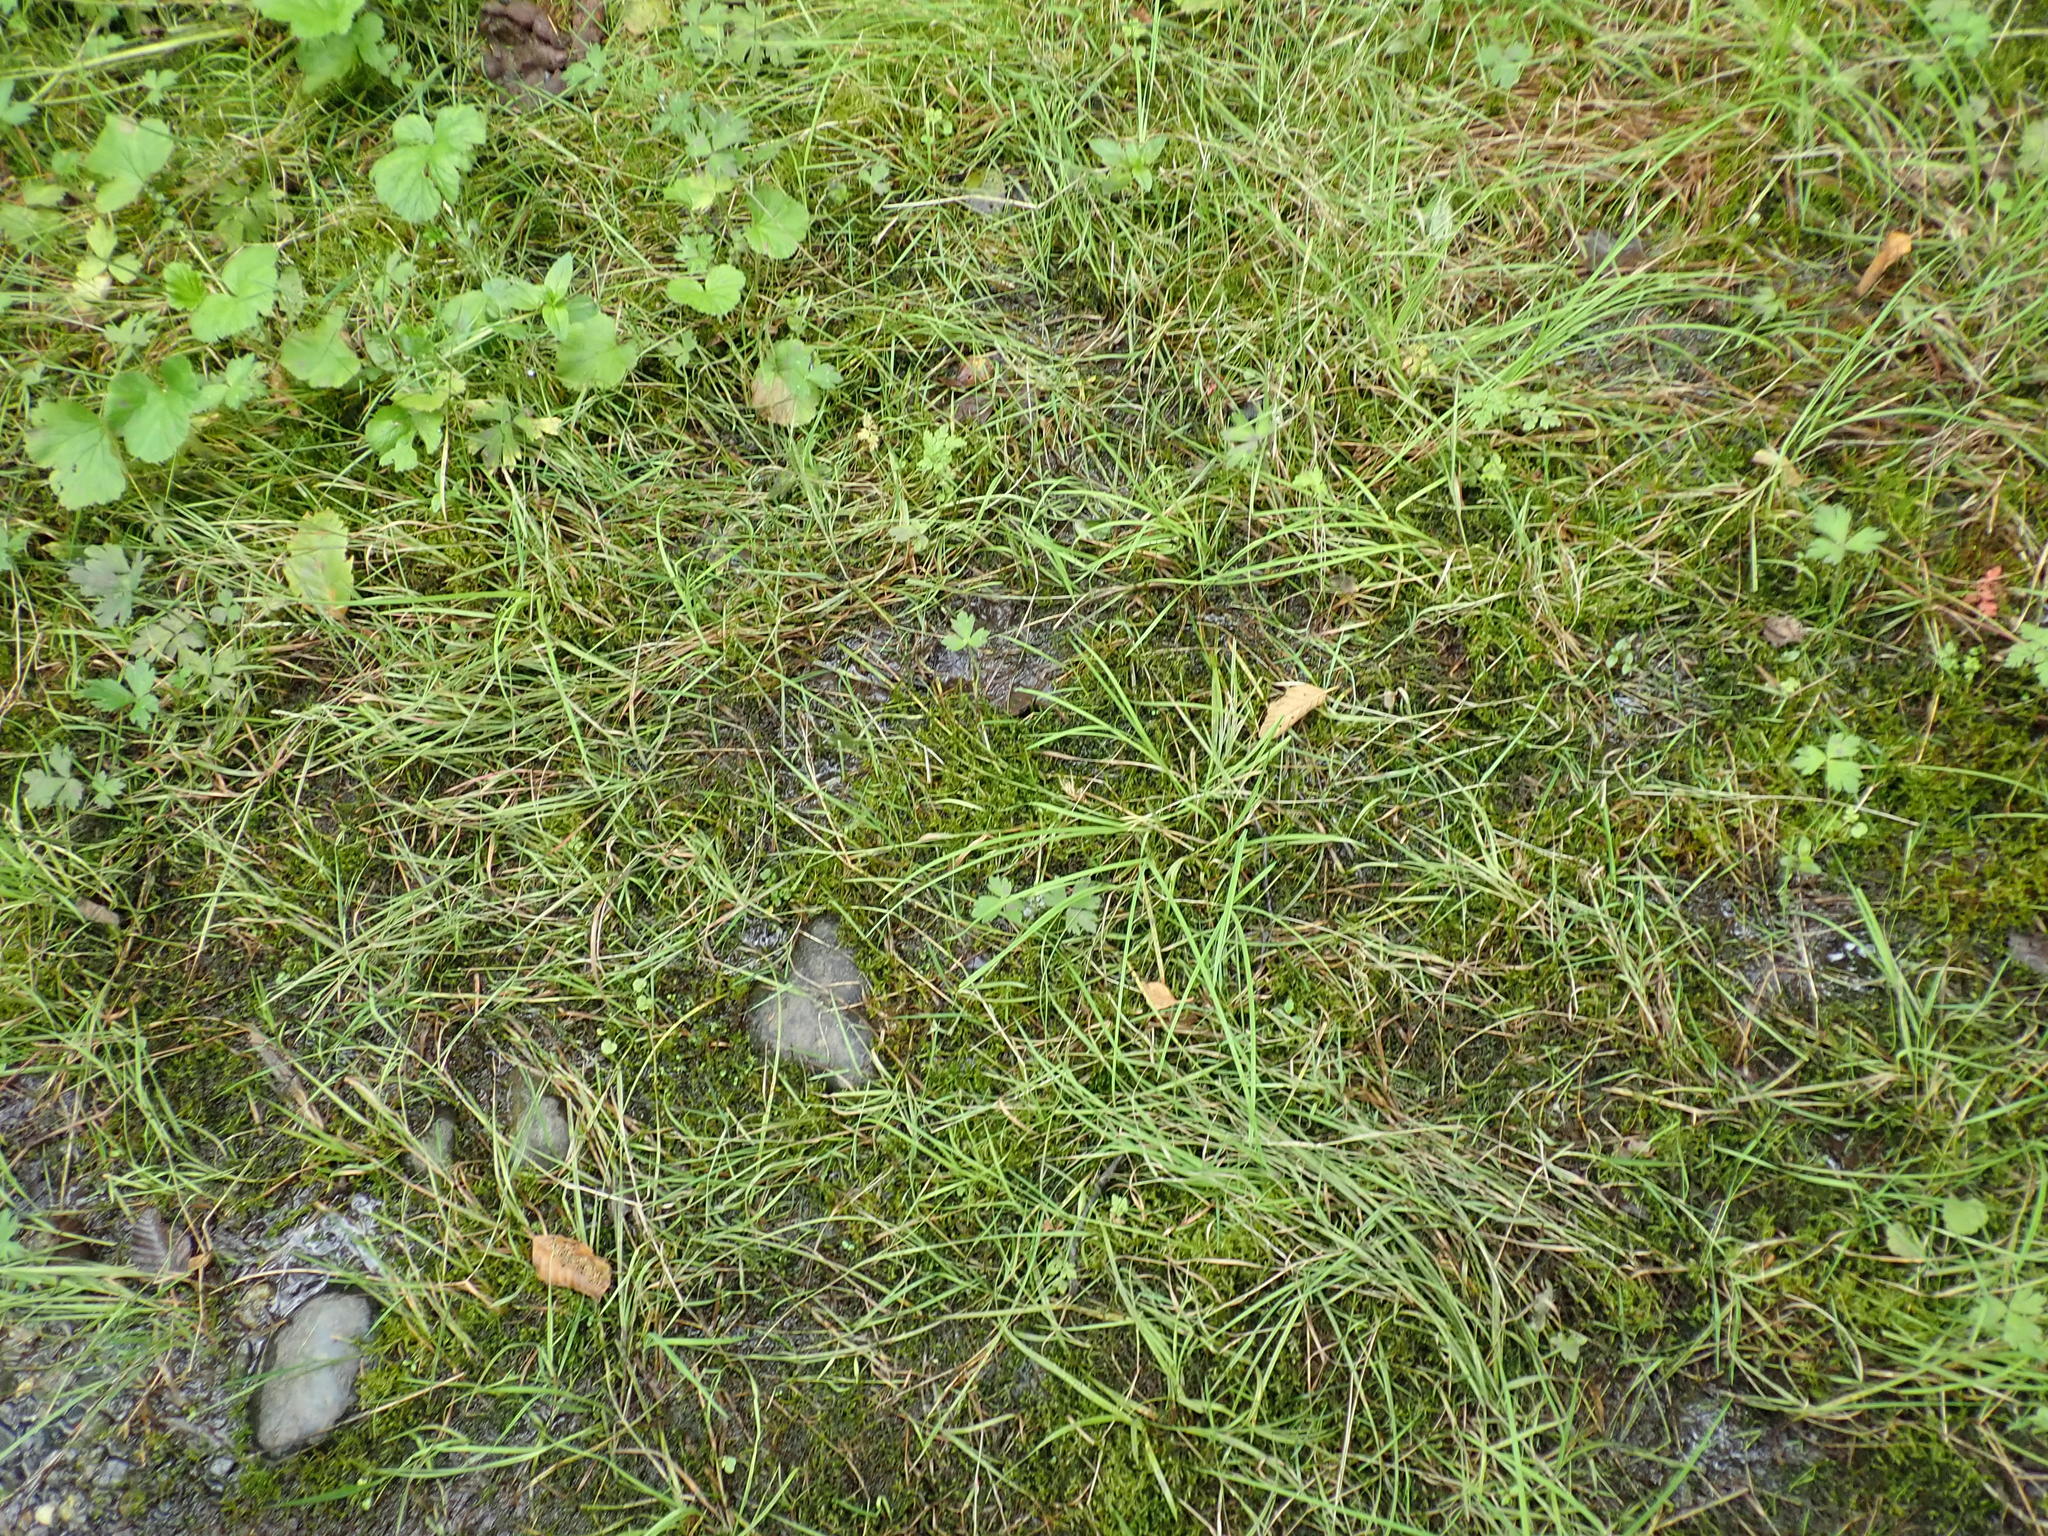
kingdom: Plantae
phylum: Bryophyta
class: Bryopsida
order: Hypnales
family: Pylaisiaceae
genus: Calliergonella
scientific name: Calliergonella cuspidata
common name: Common large wetland moss
